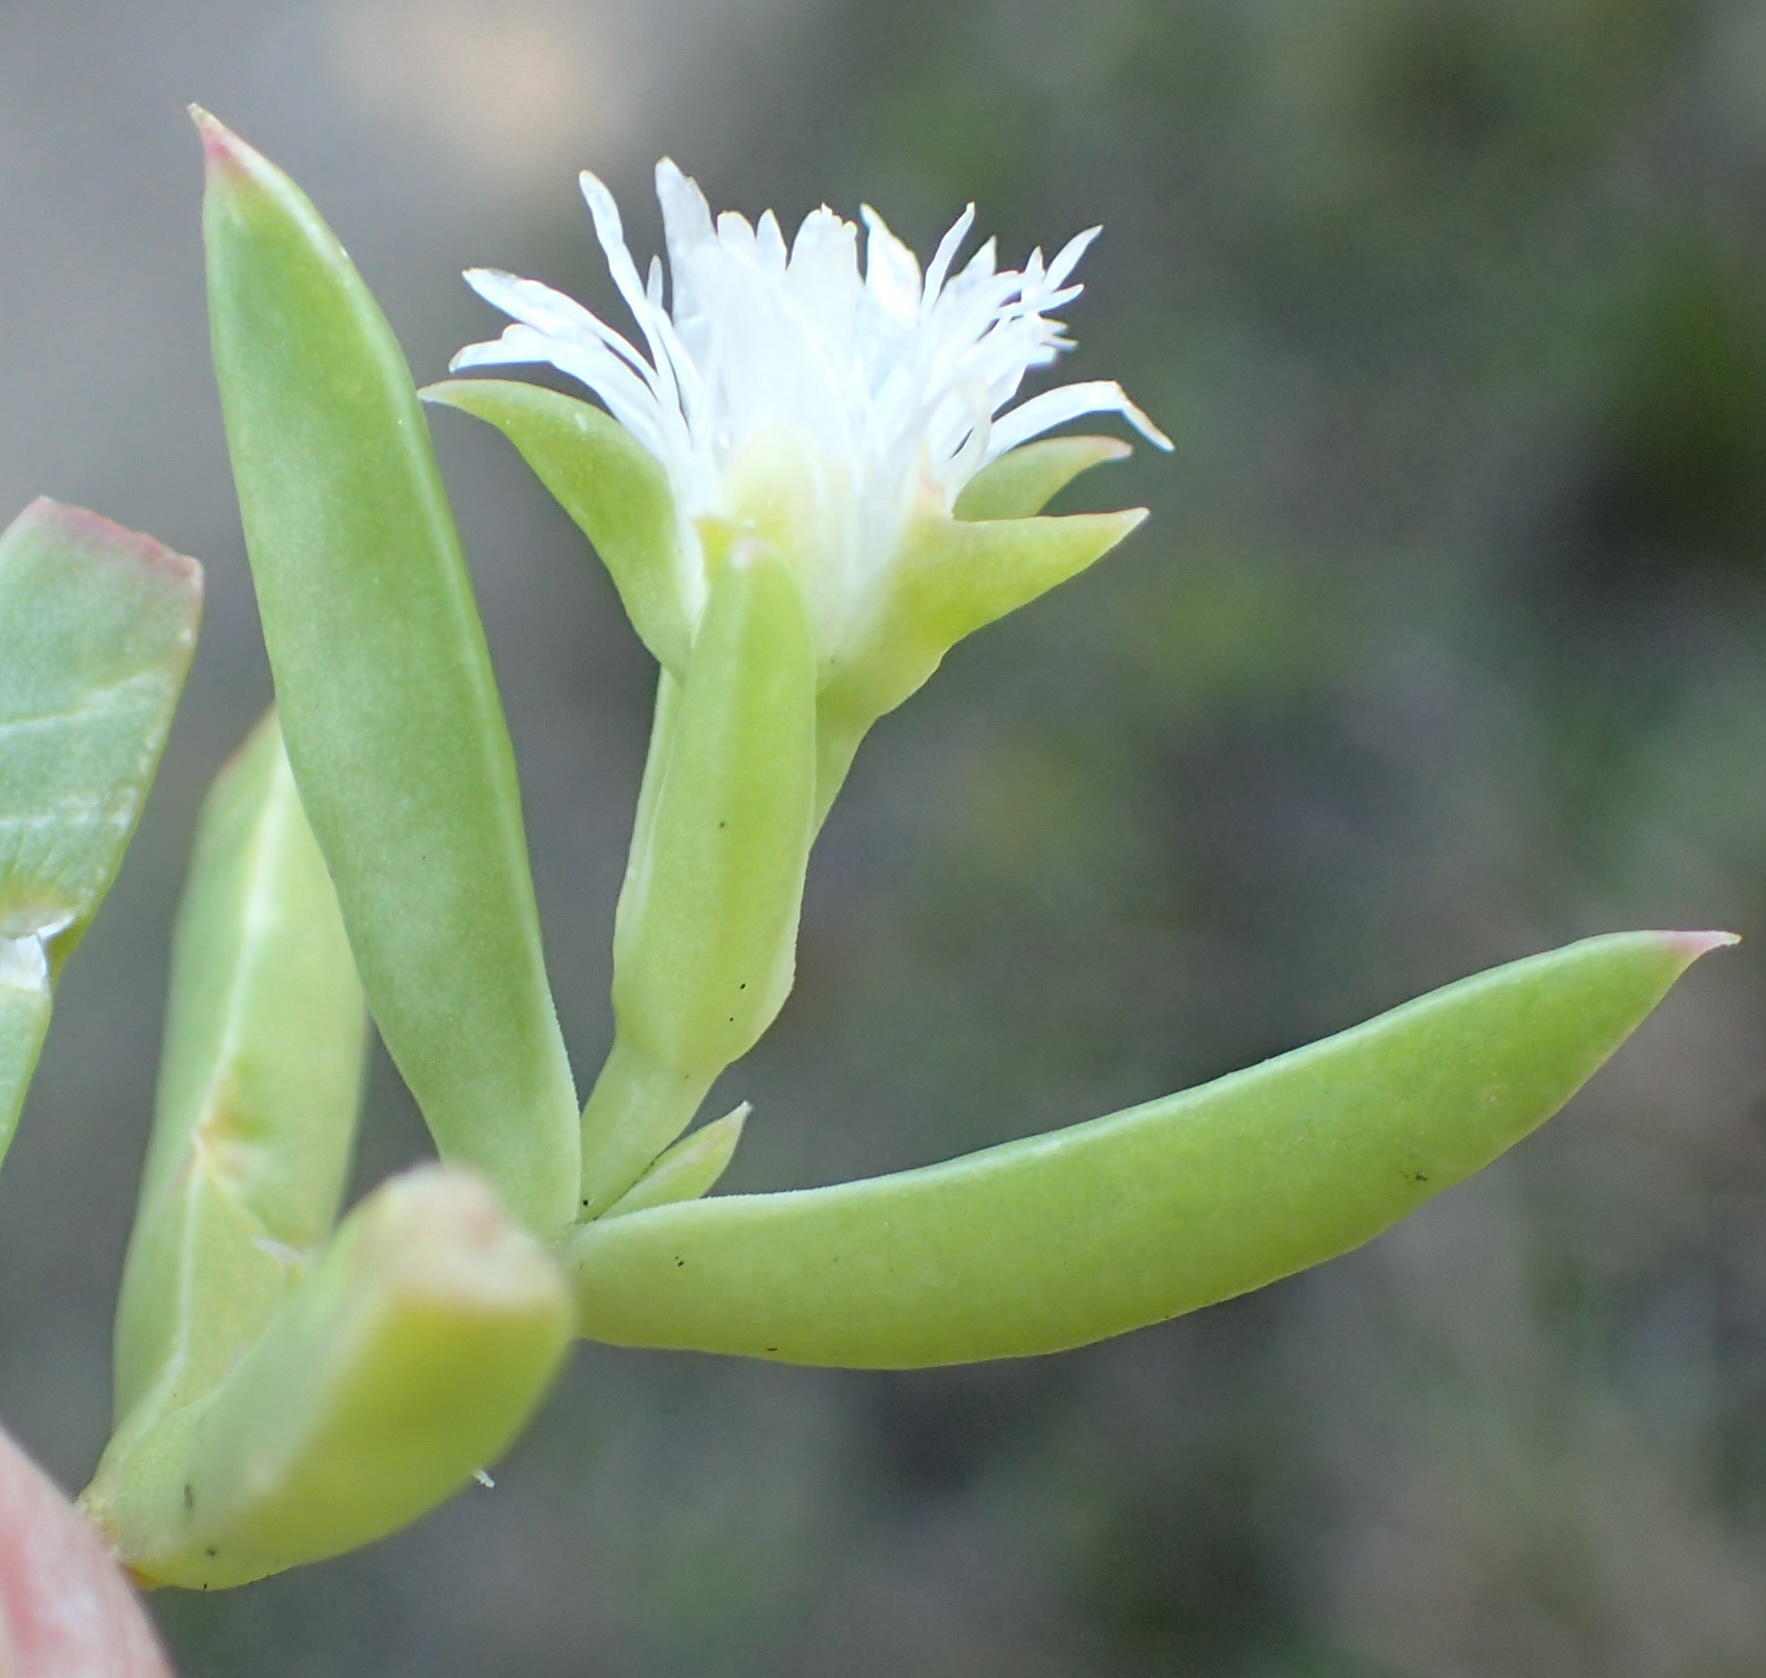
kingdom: Plantae
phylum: Tracheophyta
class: Magnoliopsida
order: Caryophyllales
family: Aizoaceae
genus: Delosperma
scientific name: Delosperma inconspicuum
